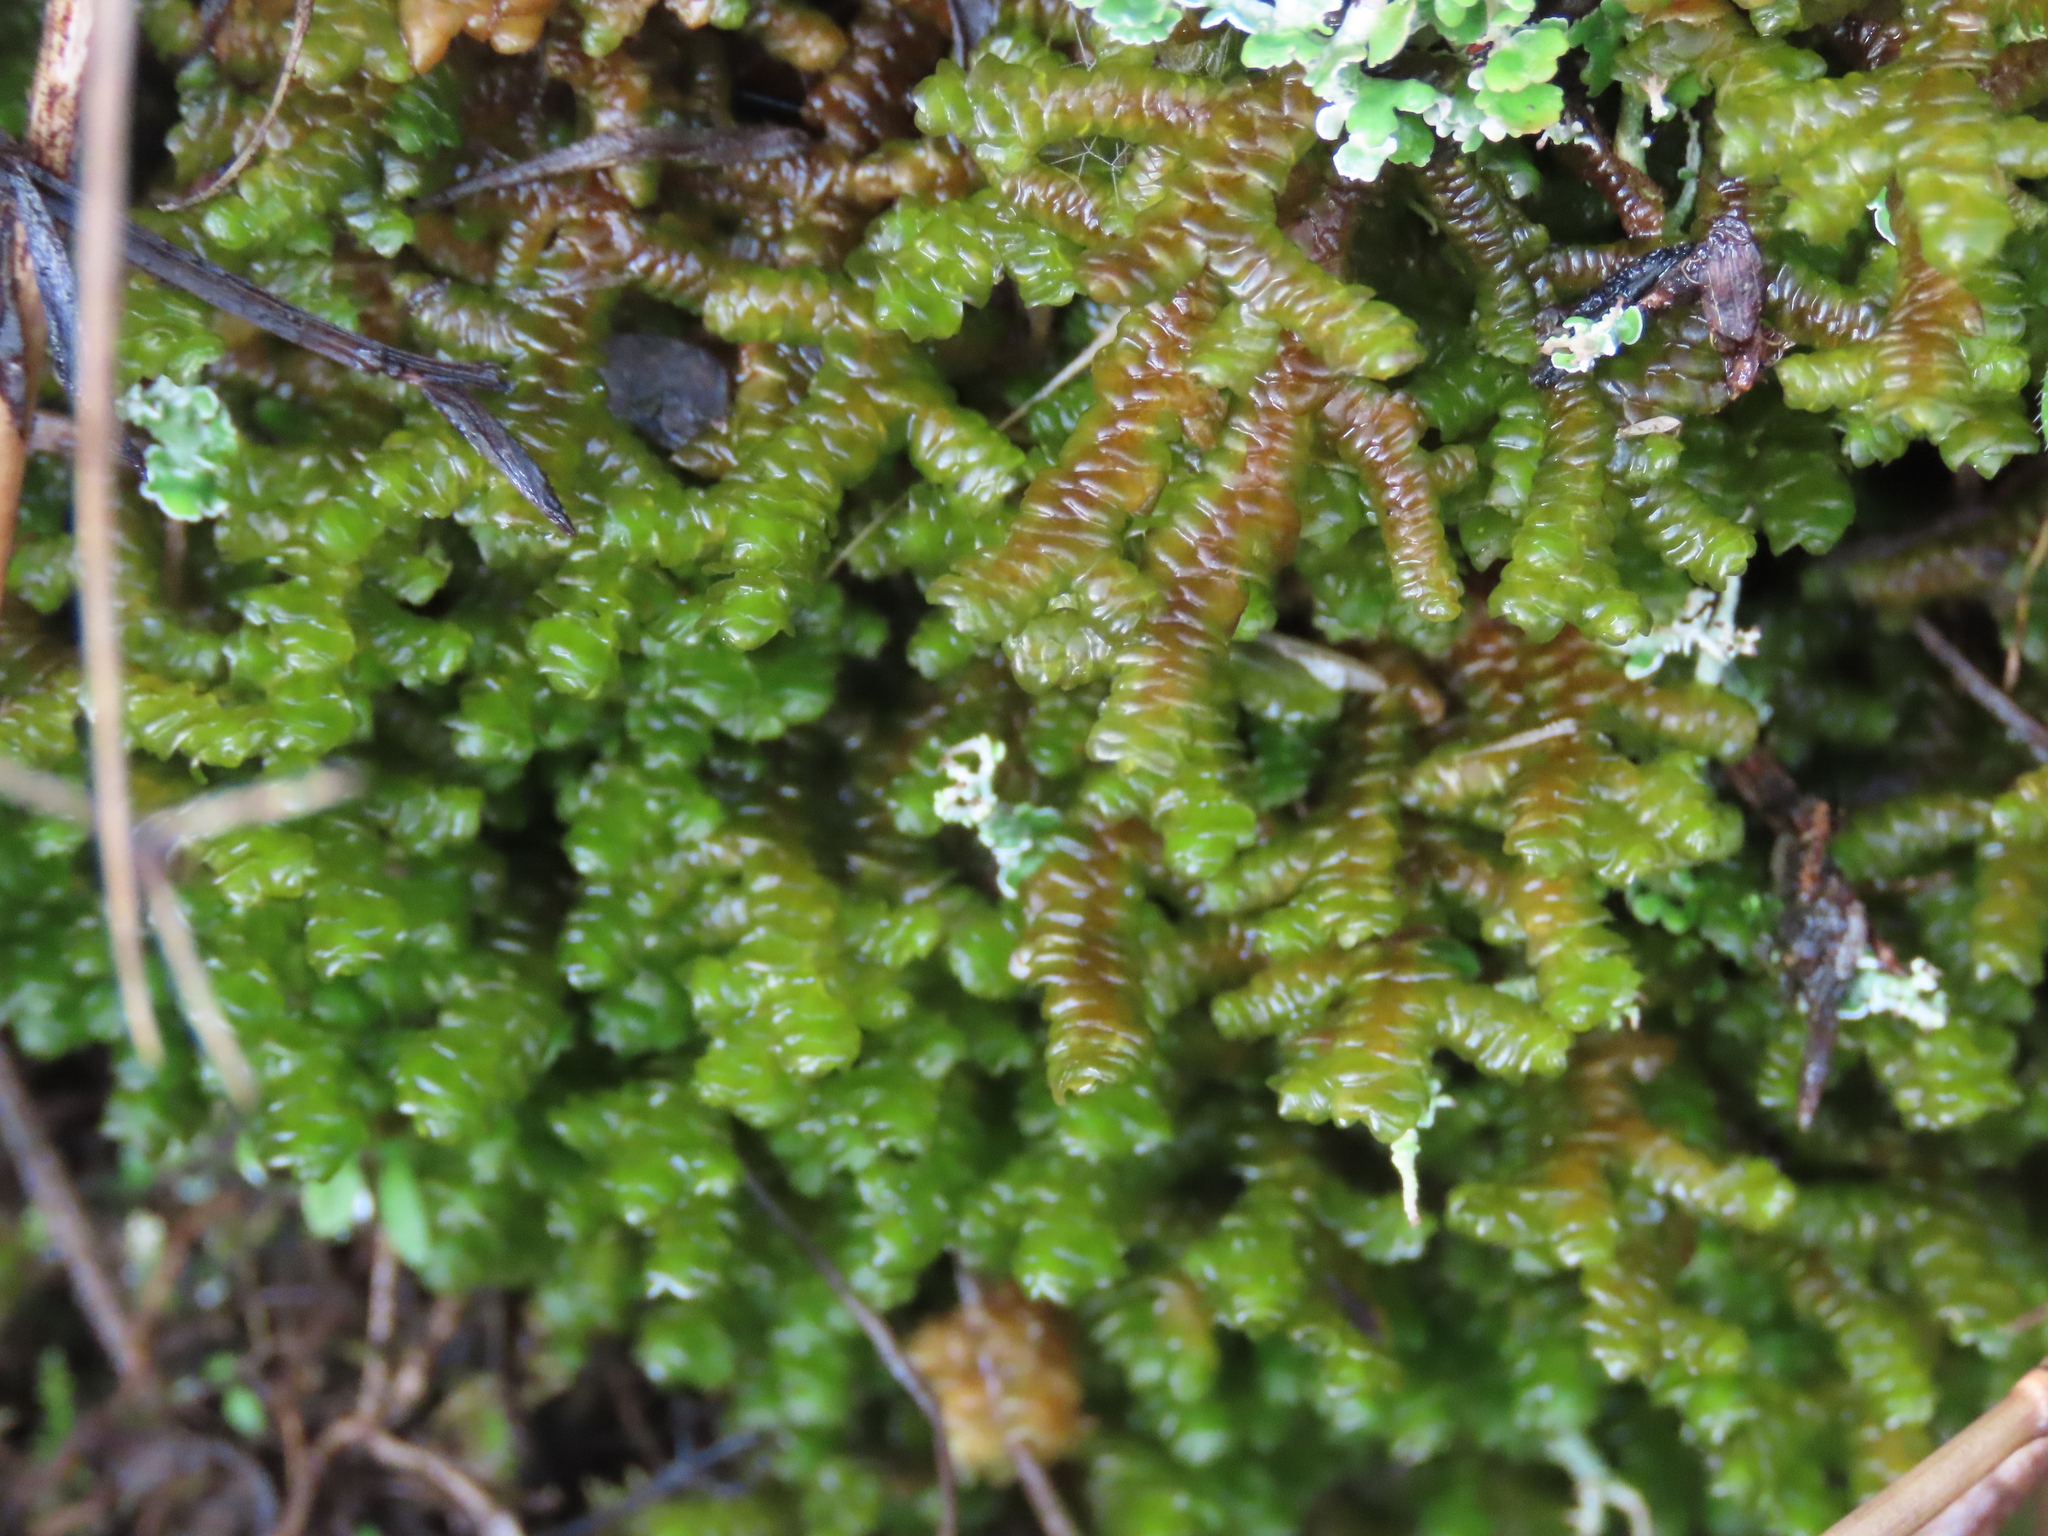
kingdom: Plantae
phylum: Marchantiophyta
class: Jungermanniopsida
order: Porellales
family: Porellaceae
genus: Porella
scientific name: Porella navicularis
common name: Tree ruffle liverwort
